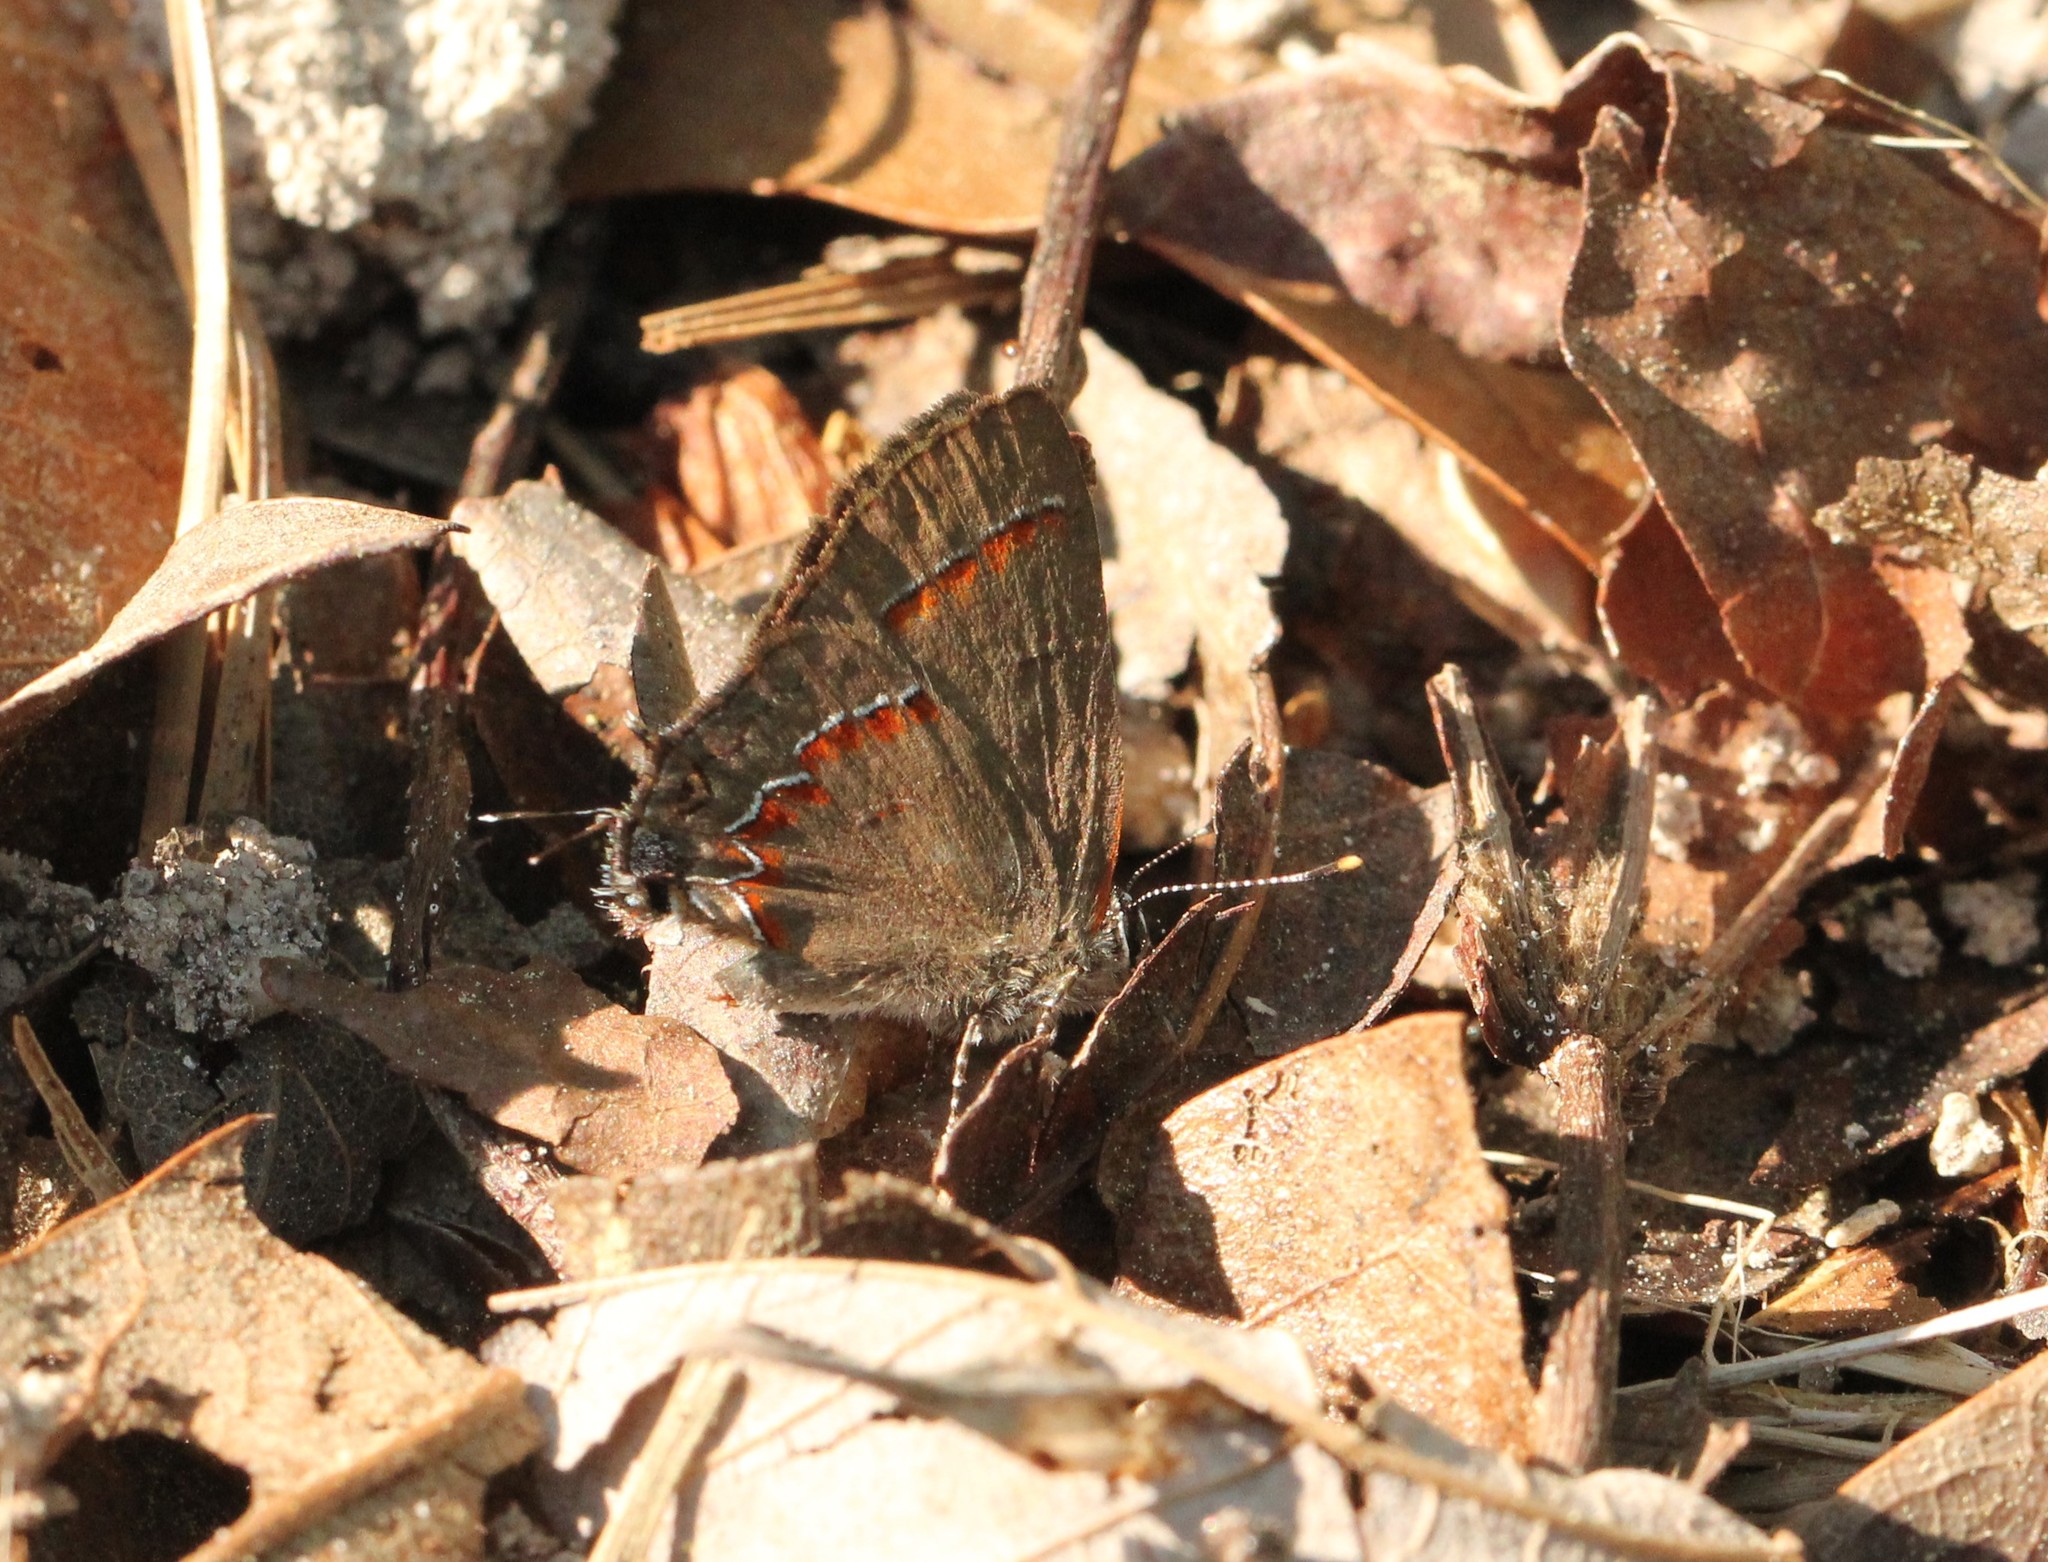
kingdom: Animalia
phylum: Arthropoda
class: Insecta
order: Lepidoptera
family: Lycaenidae
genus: Calycopis
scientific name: Calycopis cecrops
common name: Red-banded hairstreak
